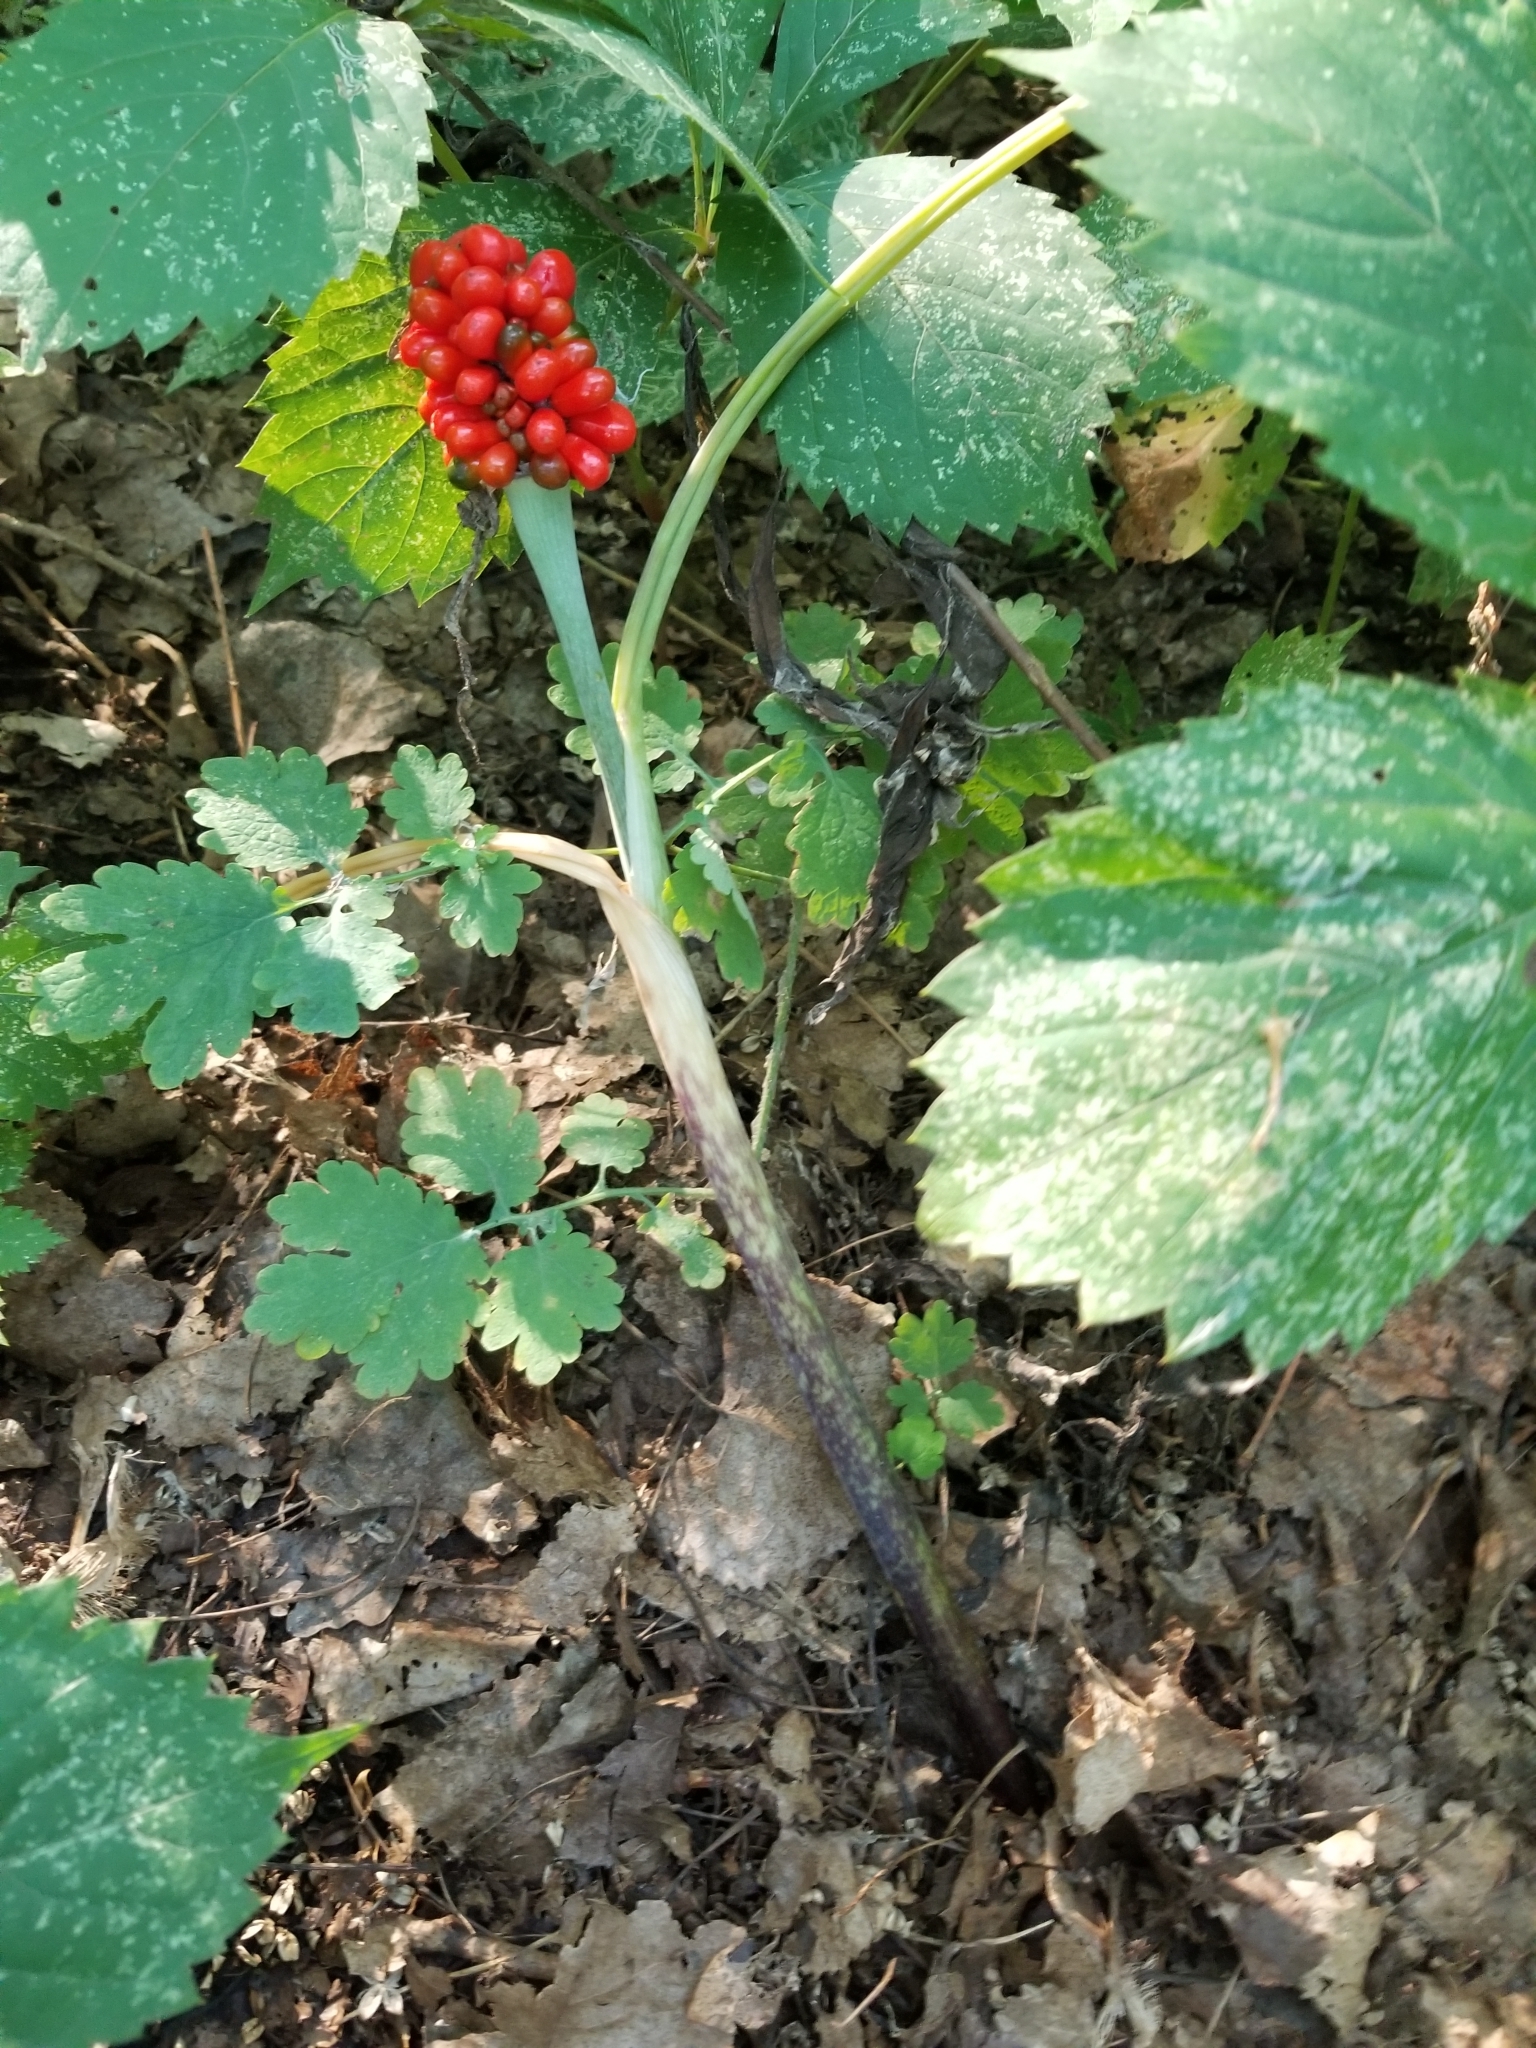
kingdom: Plantae
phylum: Tracheophyta
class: Liliopsida
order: Alismatales
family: Araceae
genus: Arisaema
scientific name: Arisaema triphyllum
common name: Jack-in-the-pulpit
